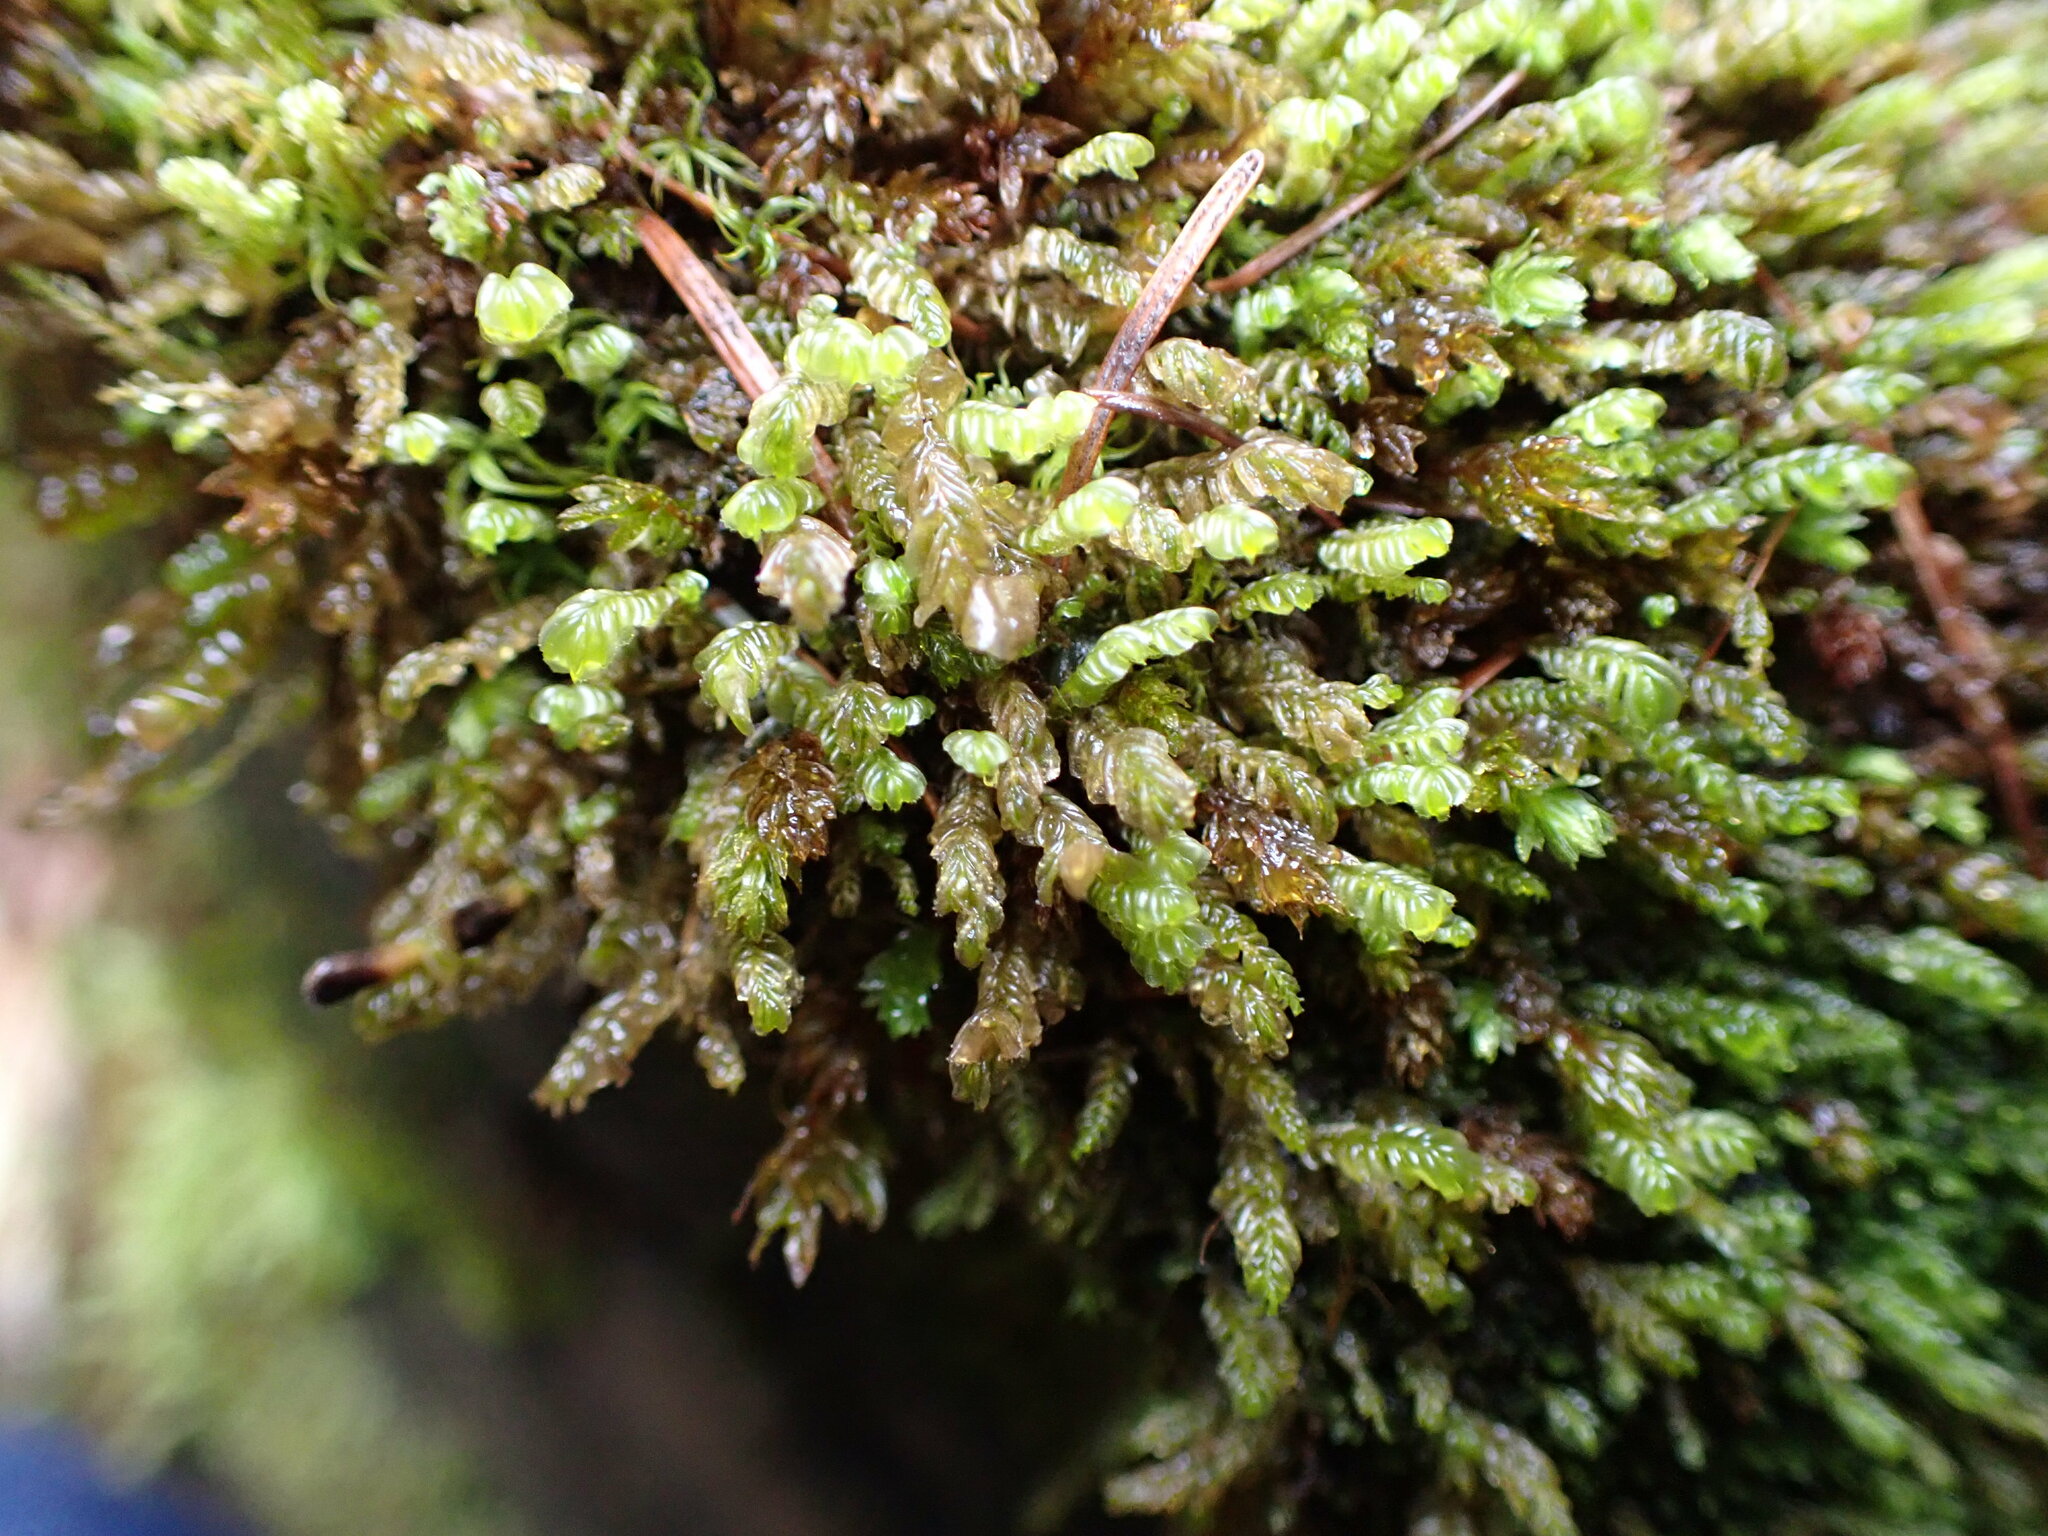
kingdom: Plantae
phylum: Marchantiophyta
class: Jungermanniopsida
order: Jungermanniales
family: Plagiochilaceae
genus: Plagiochila
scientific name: Plagiochila porelloides
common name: Lesser featherwort
